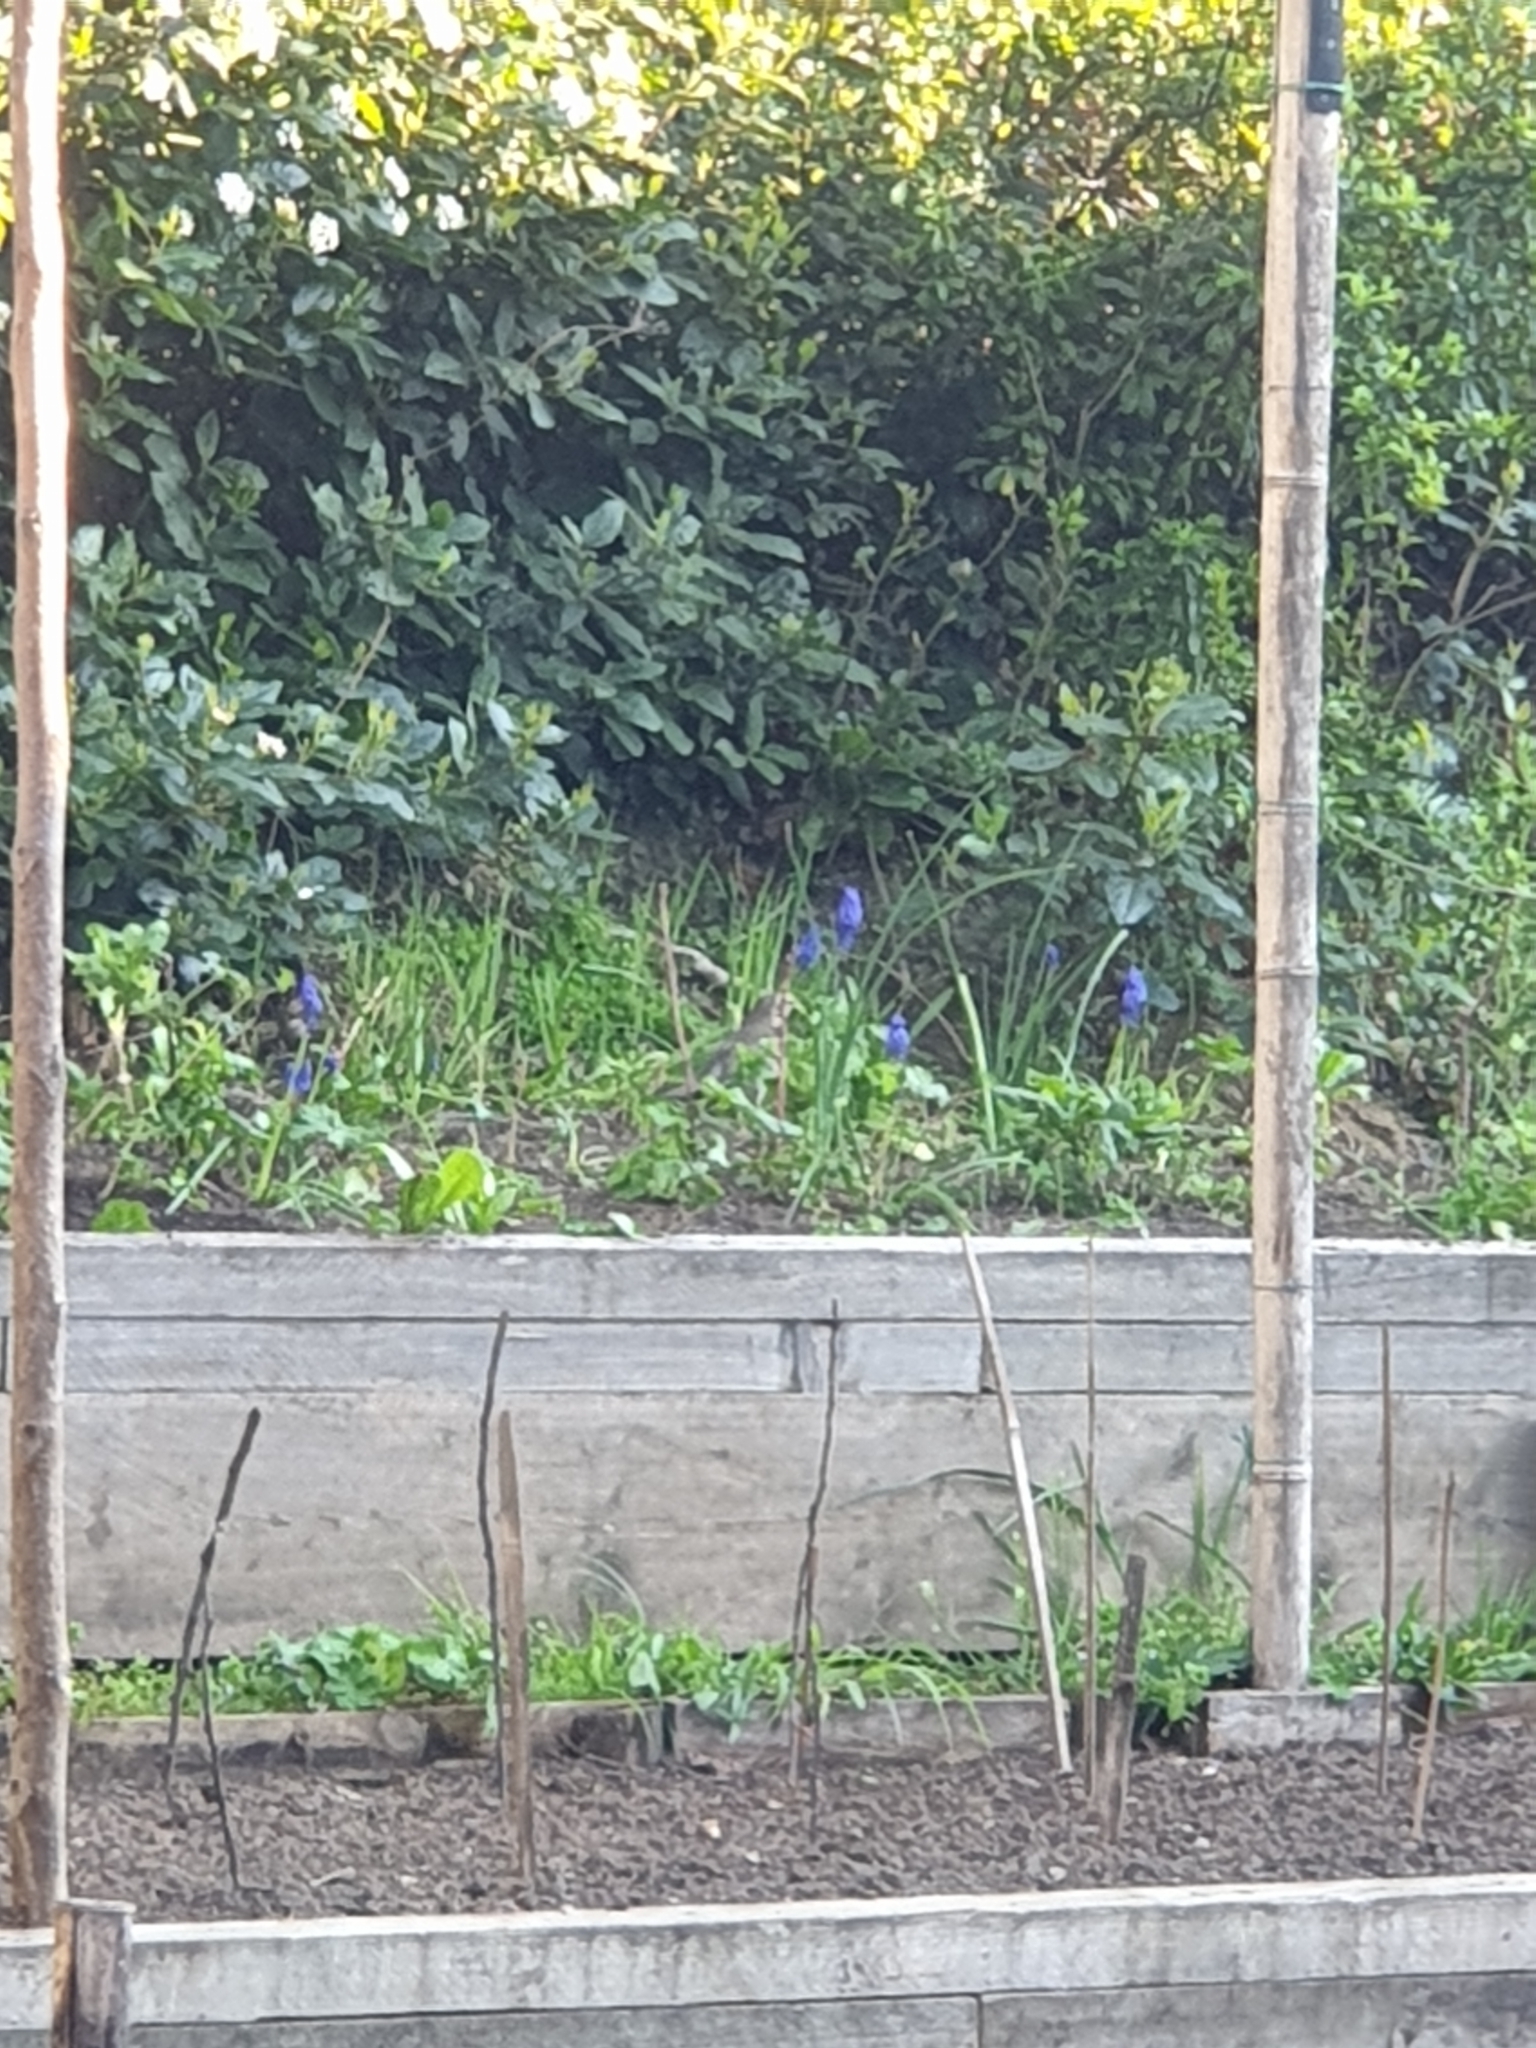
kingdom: Animalia
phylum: Chordata
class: Aves
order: Passeriformes
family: Turdidae
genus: Turdus
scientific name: Turdus philomelos
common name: Song thrush
